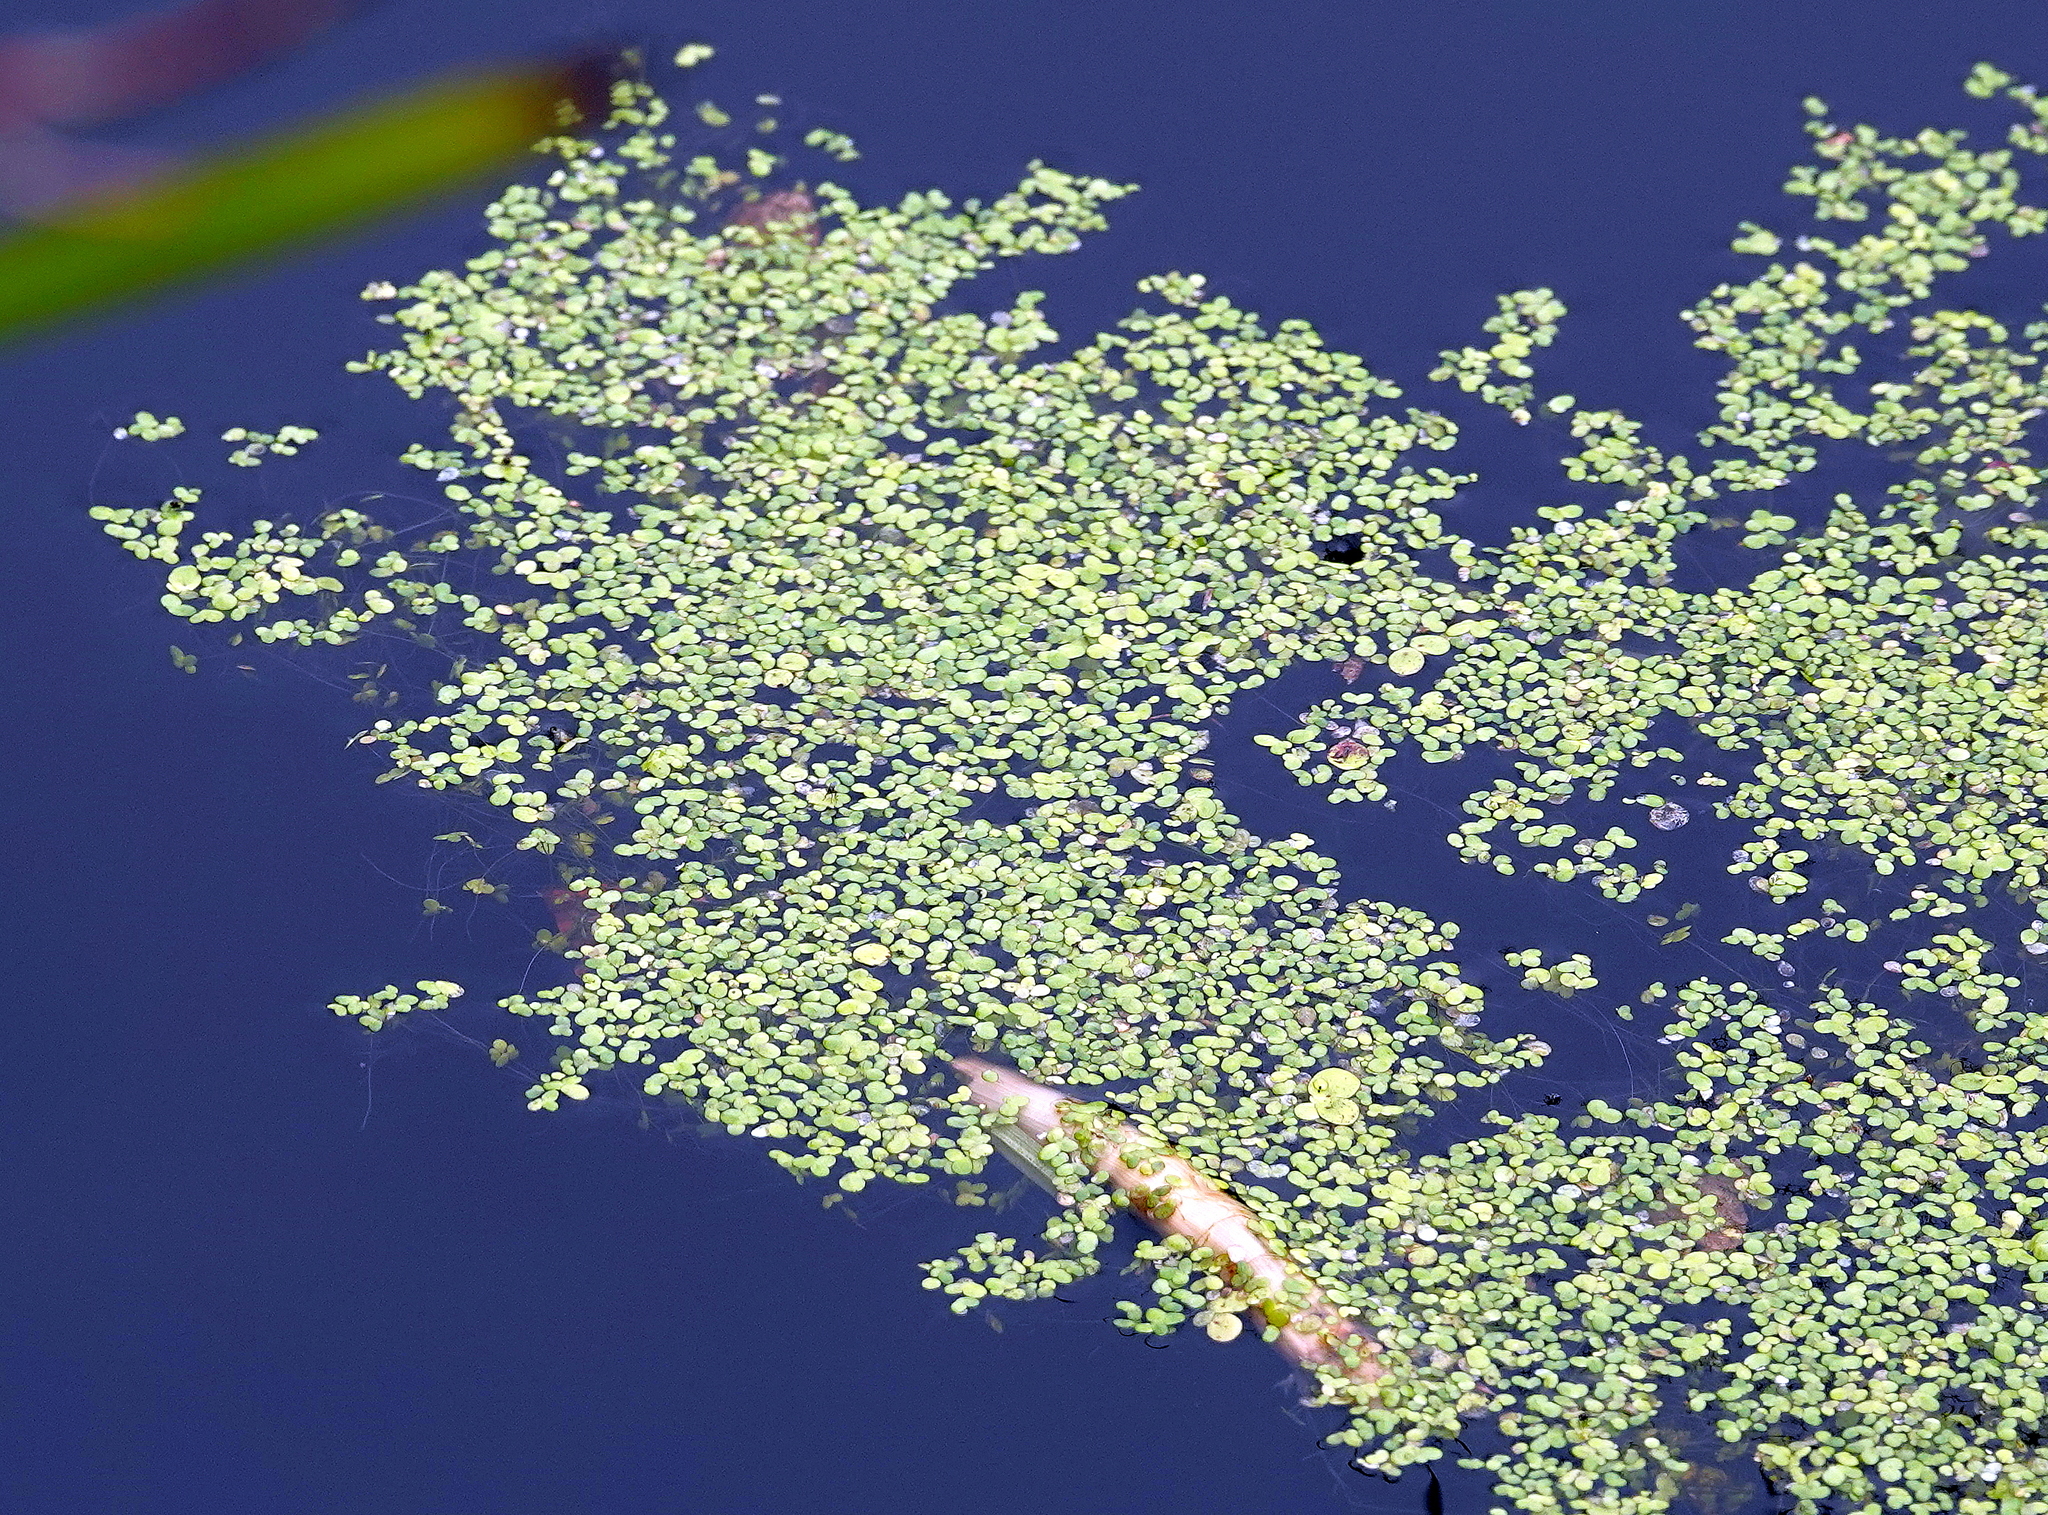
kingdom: Plantae
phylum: Tracheophyta
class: Liliopsida
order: Alismatales
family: Araceae
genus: Lemna
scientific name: Lemna minor
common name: Common duckweed
